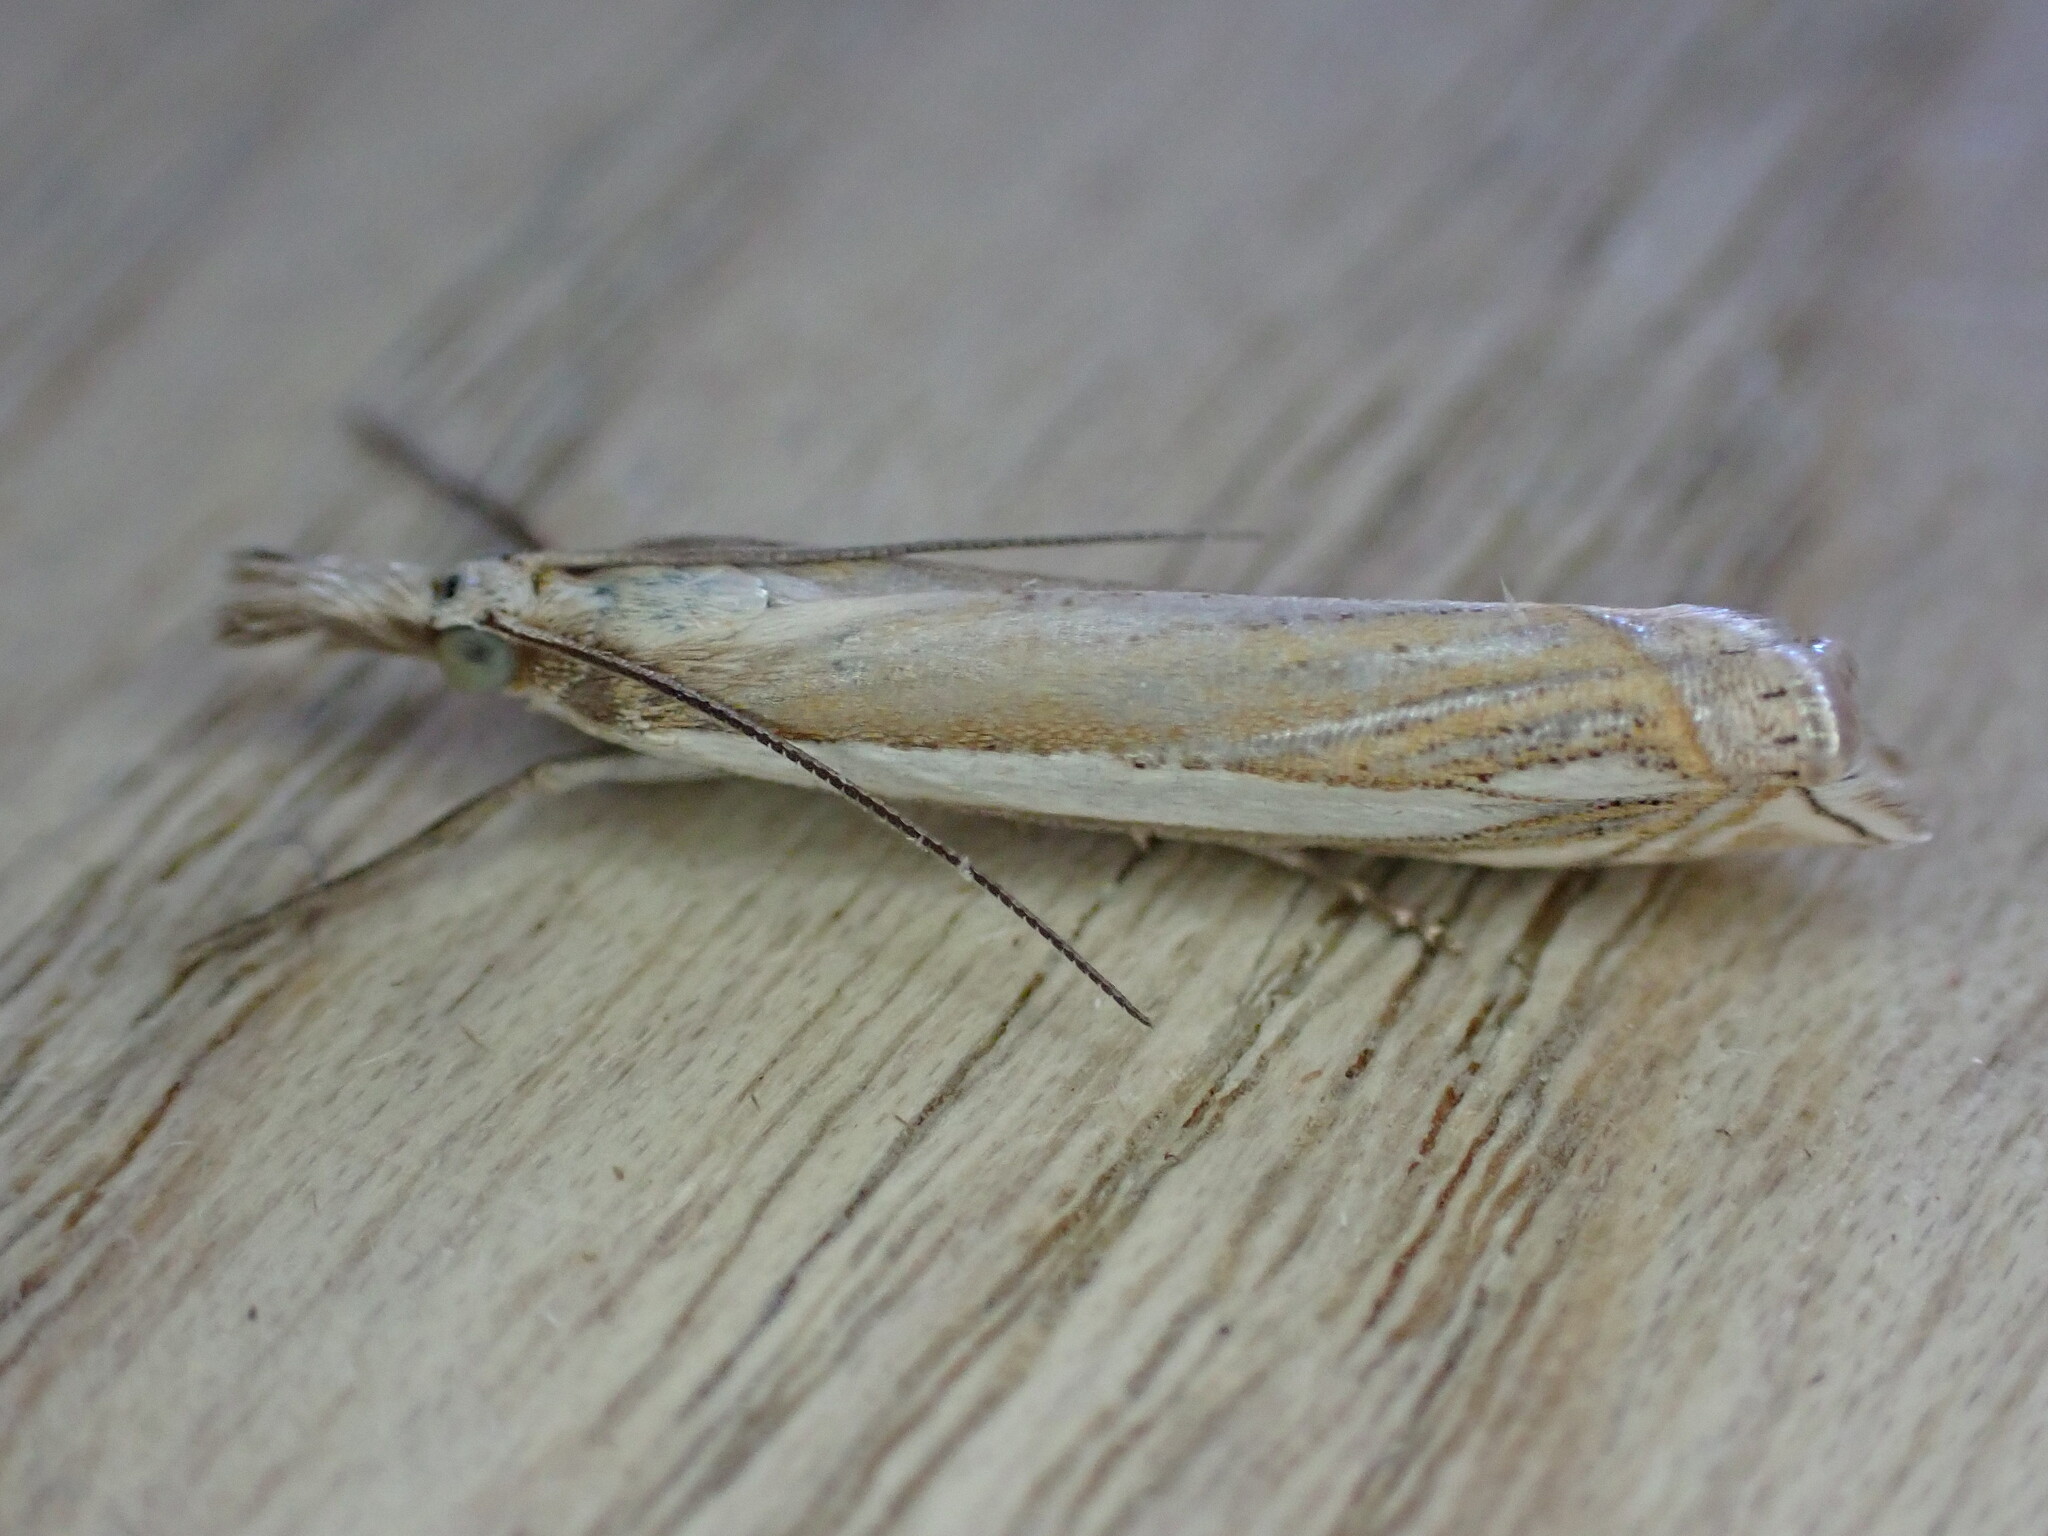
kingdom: Animalia
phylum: Arthropoda
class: Insecta
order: Lepidoptera
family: Crambidae
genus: Crambus
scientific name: Crambus pascuella
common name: Inlaid grass-veneer
